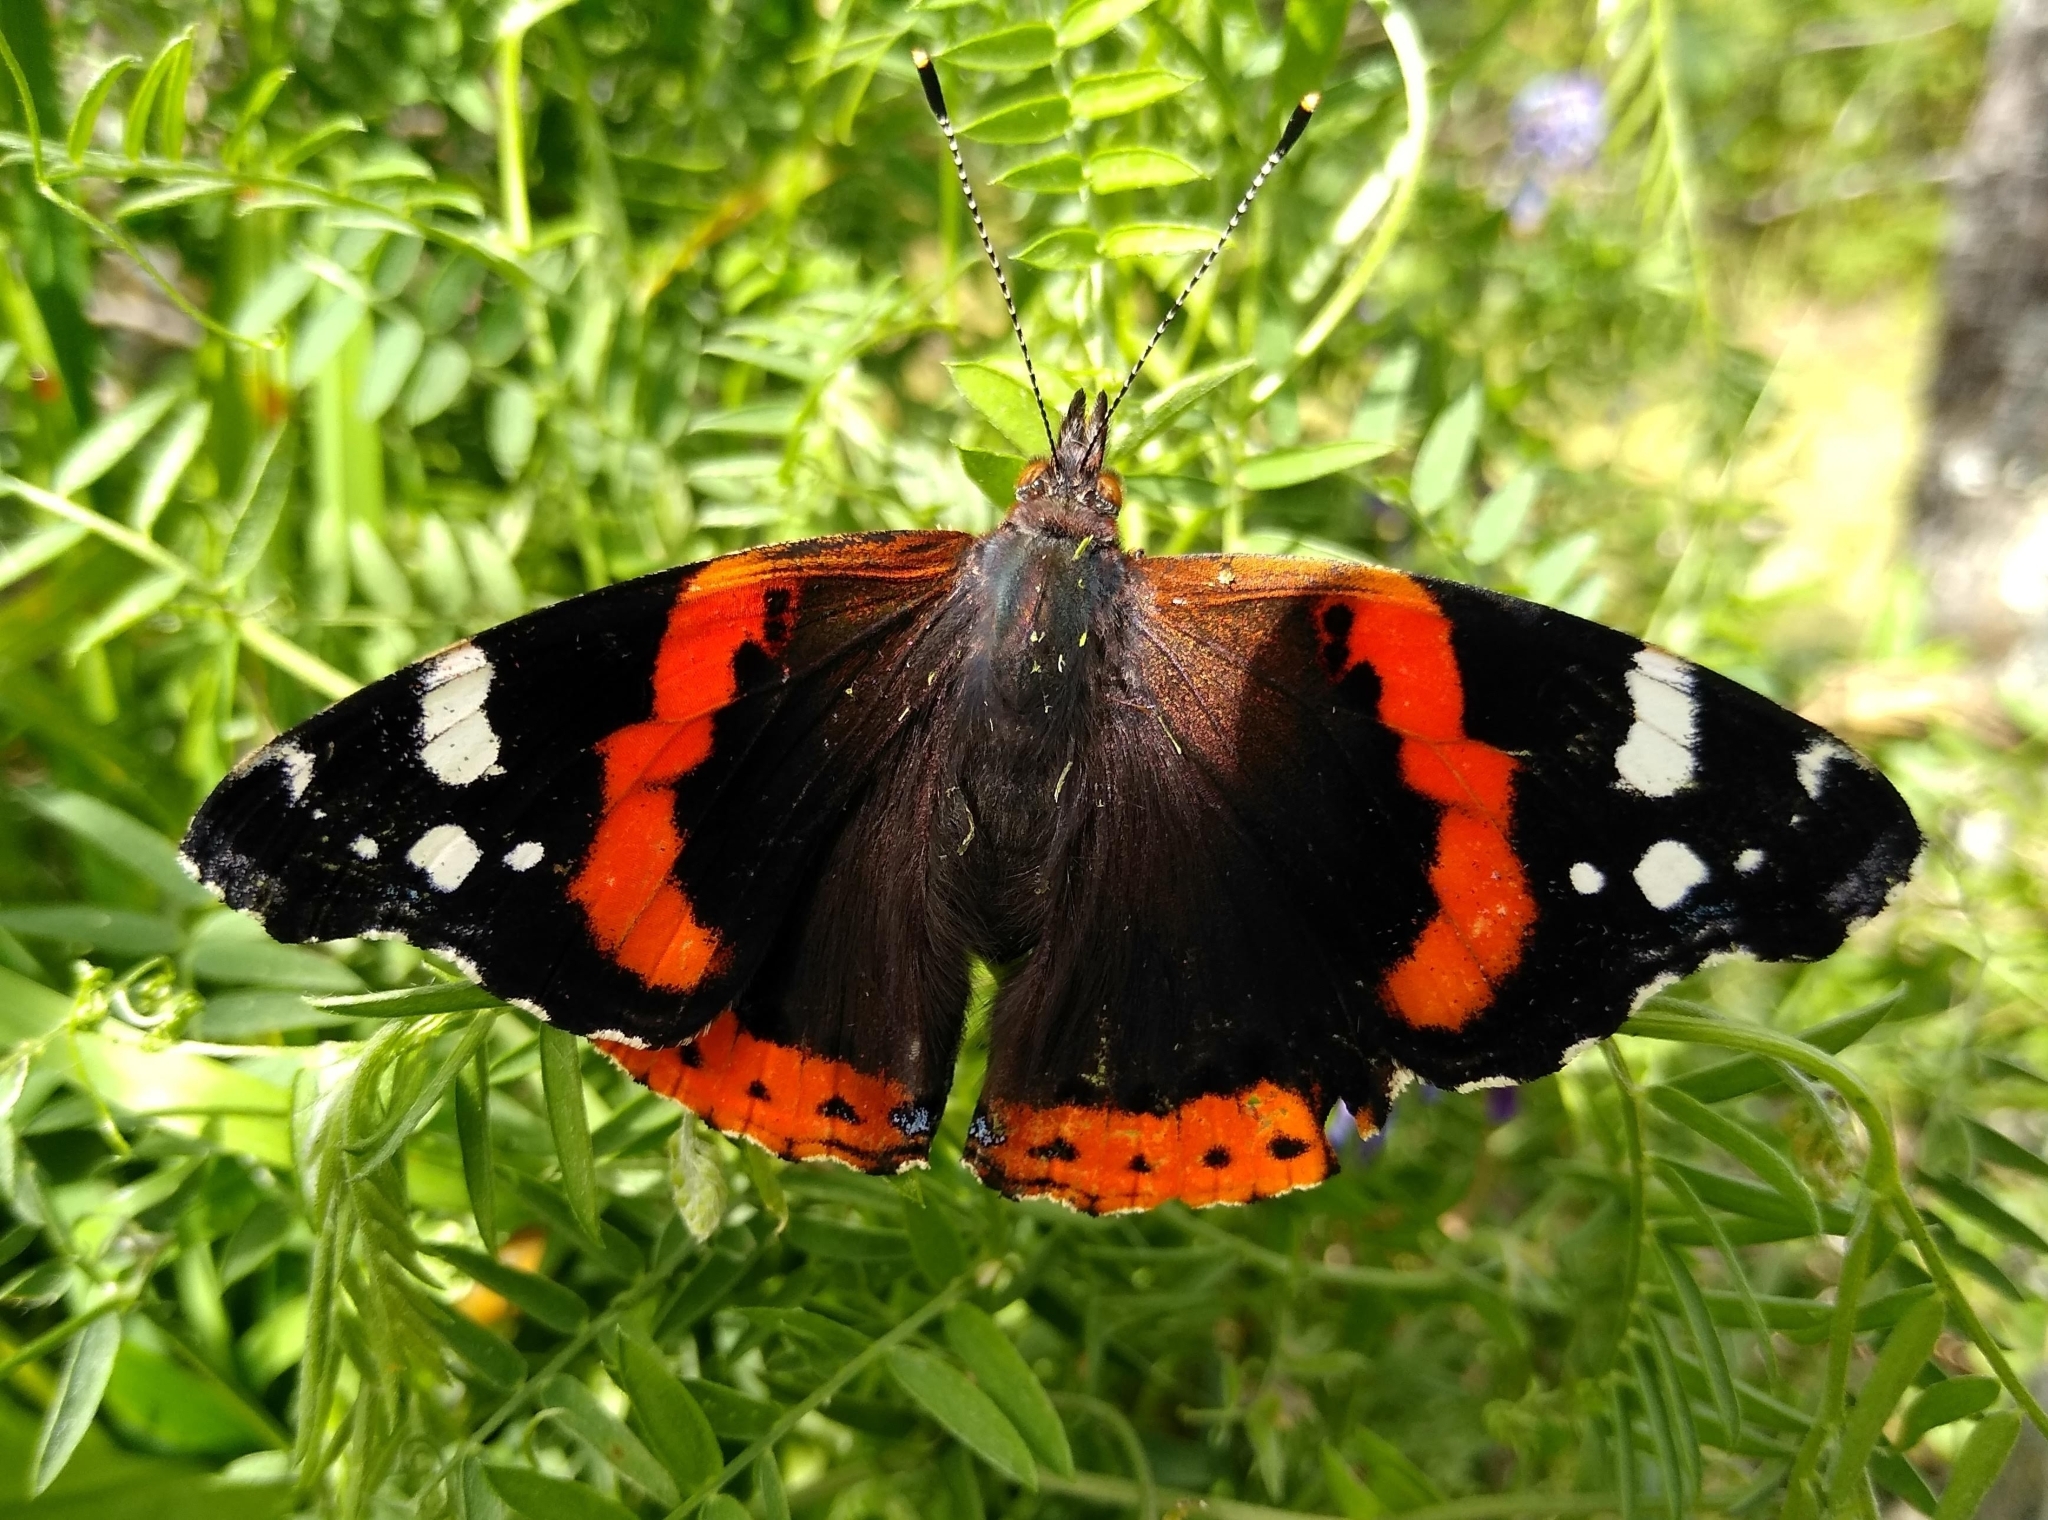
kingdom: Animalia
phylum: Arthropoda
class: Insecta
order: Lepidoptera
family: Nymphalidae
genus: Vanessa
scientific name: Vanessa atalanta
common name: Red admiral
